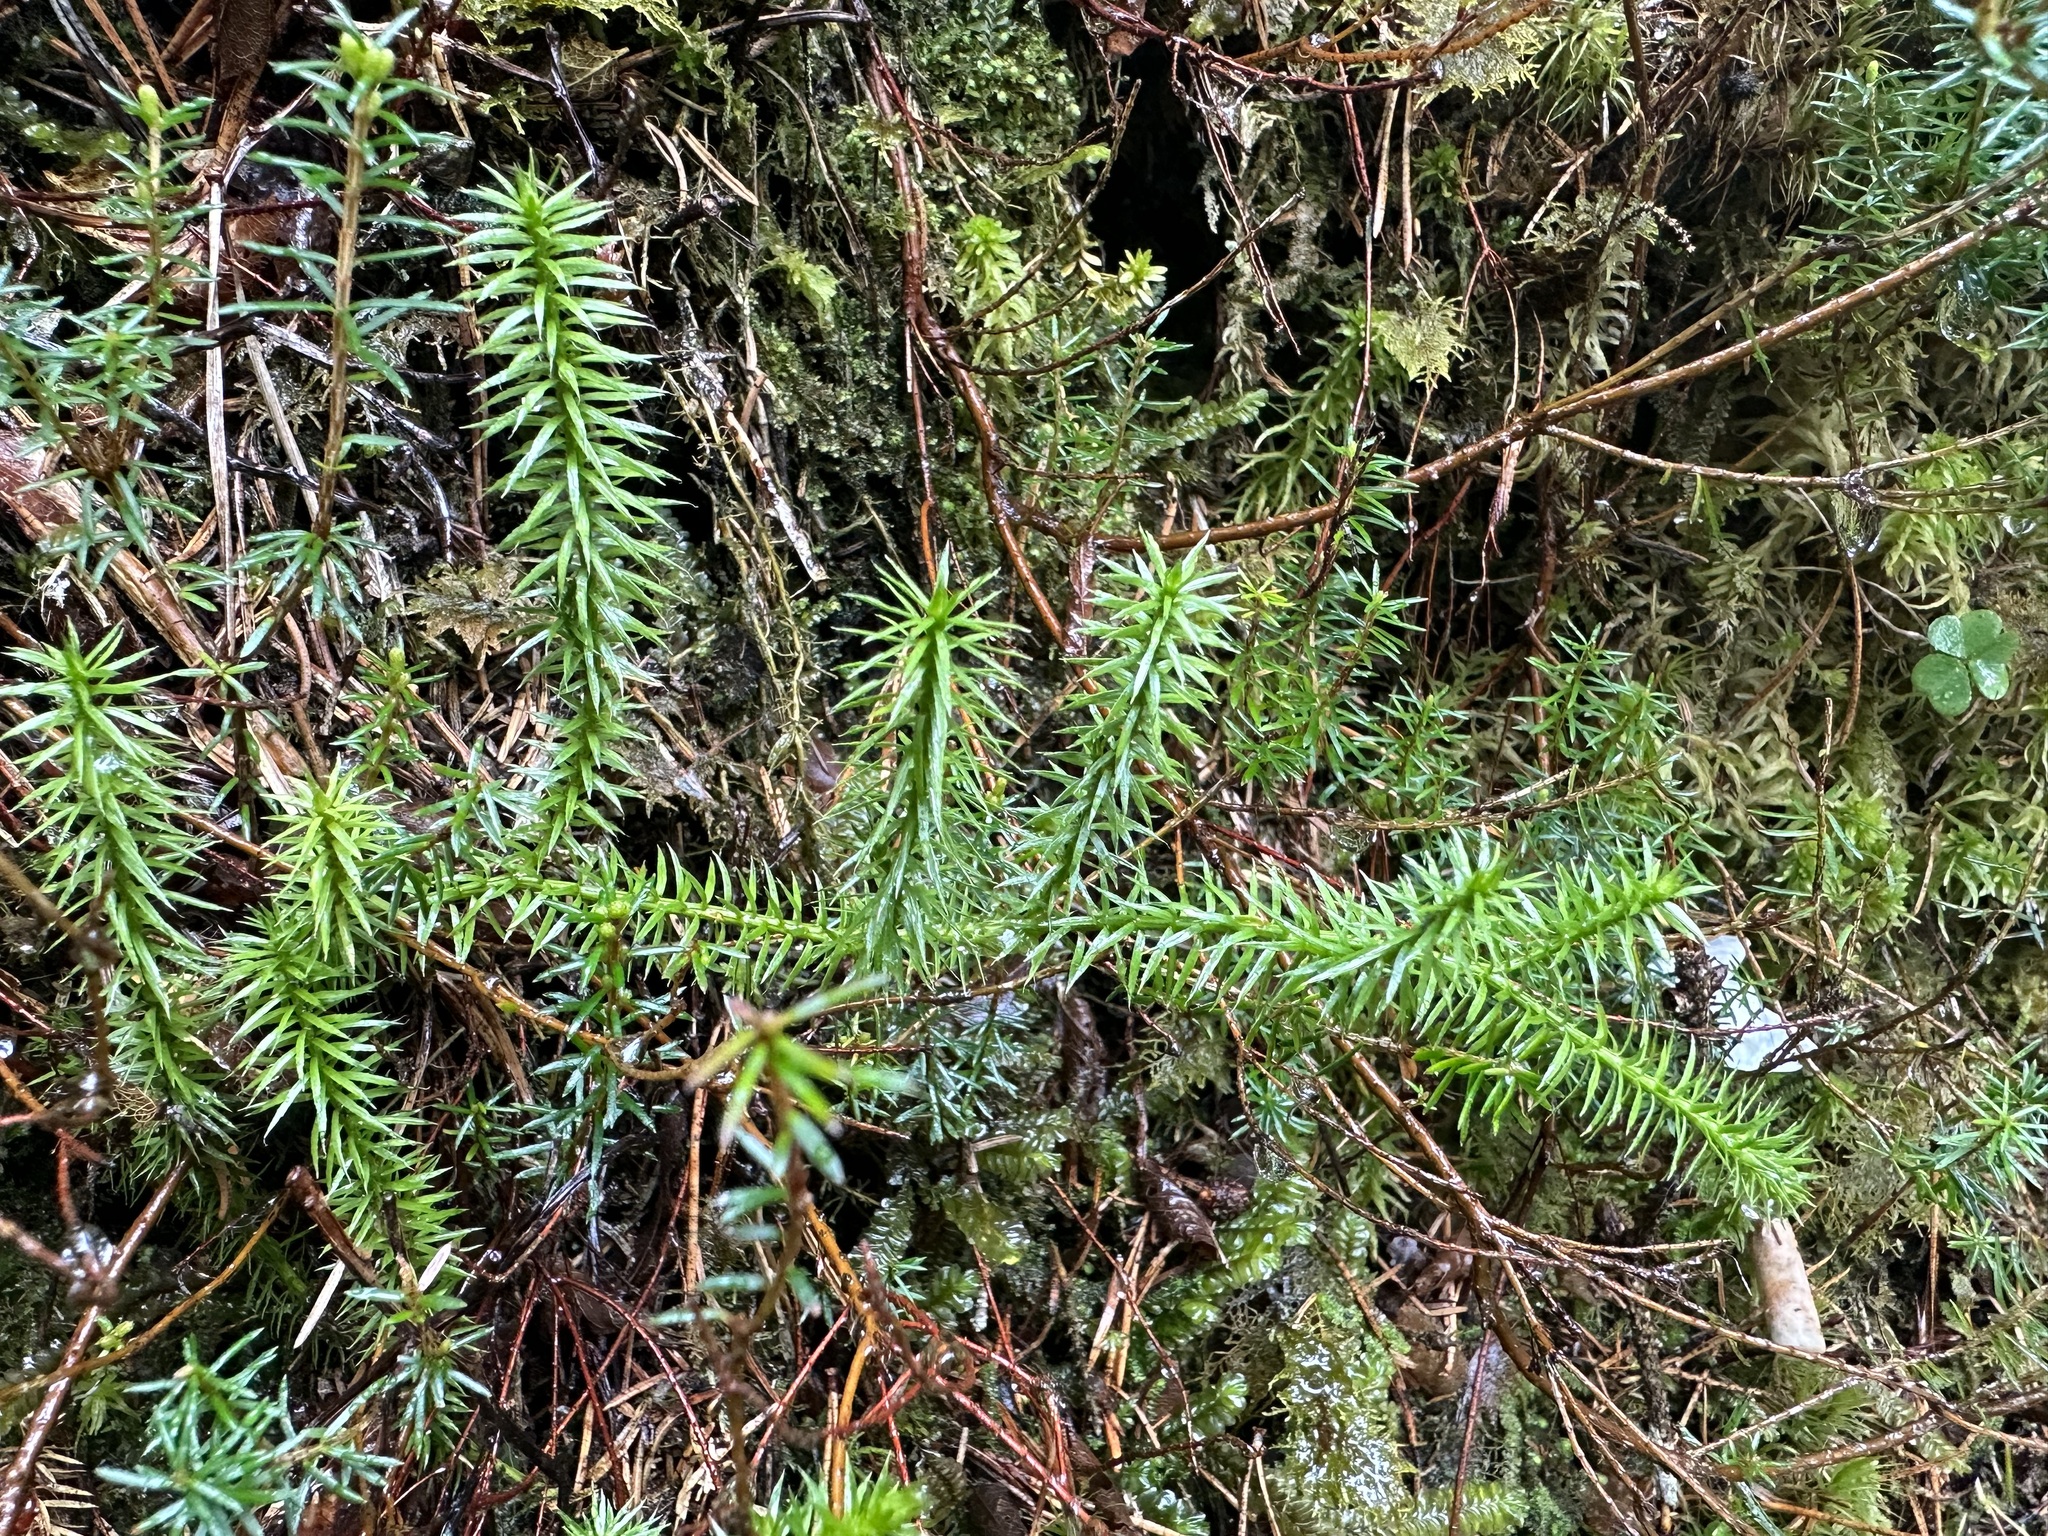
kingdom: Plantae
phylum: Tracheophyta
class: Lycopodiopsida
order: Lycopodiales
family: Lycopodiaceae
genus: Spinulum
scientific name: Spinulum annotinum
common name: Interrupted club-moss
